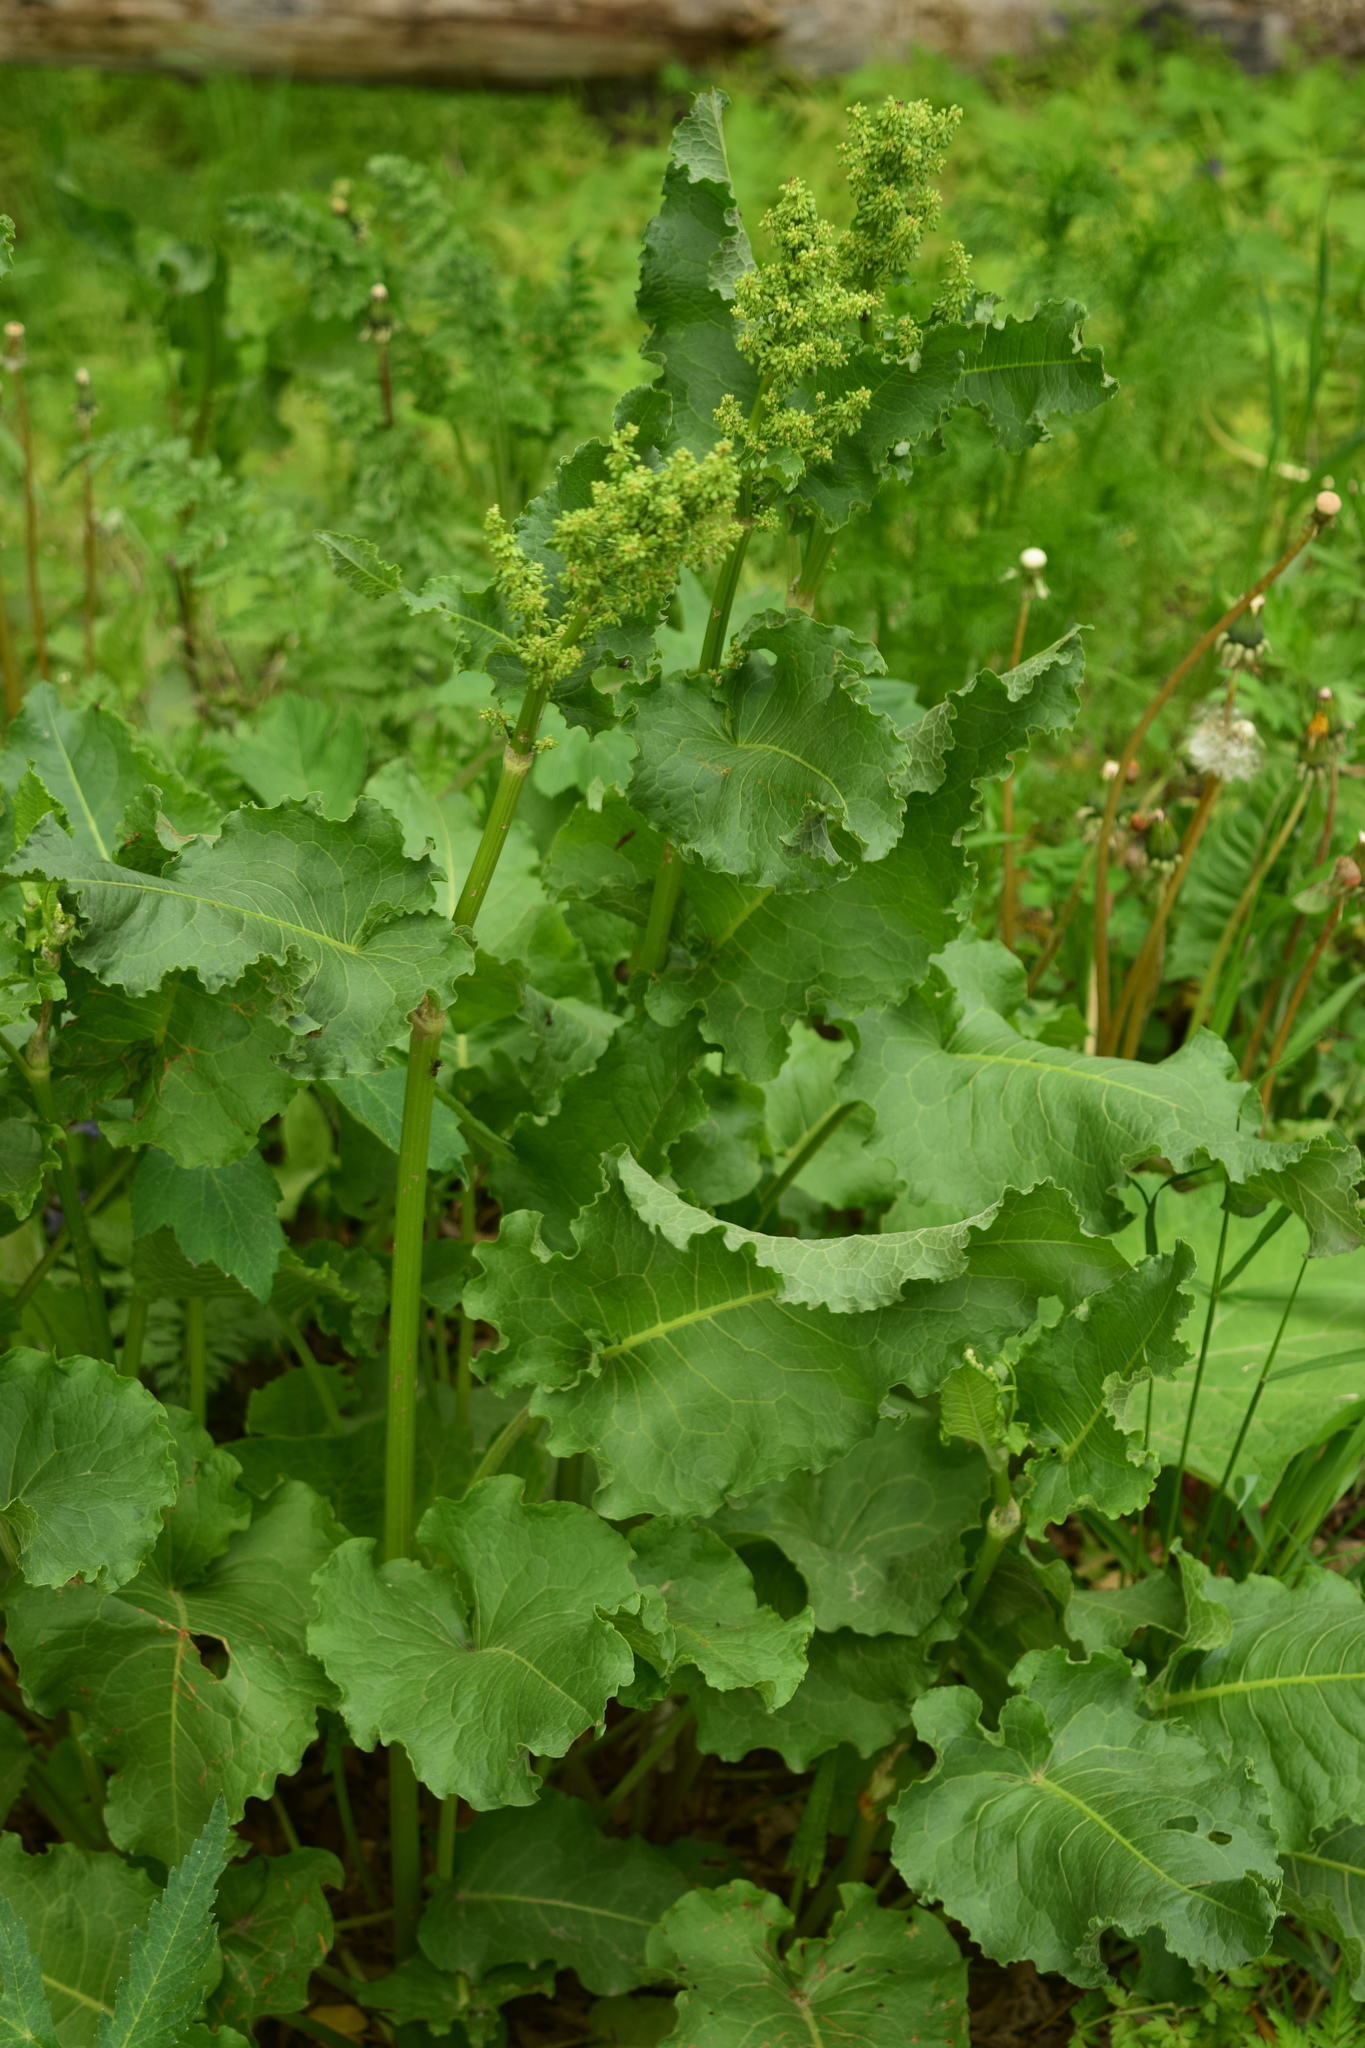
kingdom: Plantae
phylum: Tracheophyta
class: Magnoliopsida
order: Caryophyllales
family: Polygonaceae
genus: Rumex
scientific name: Rumex confertus
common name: Russian dock
